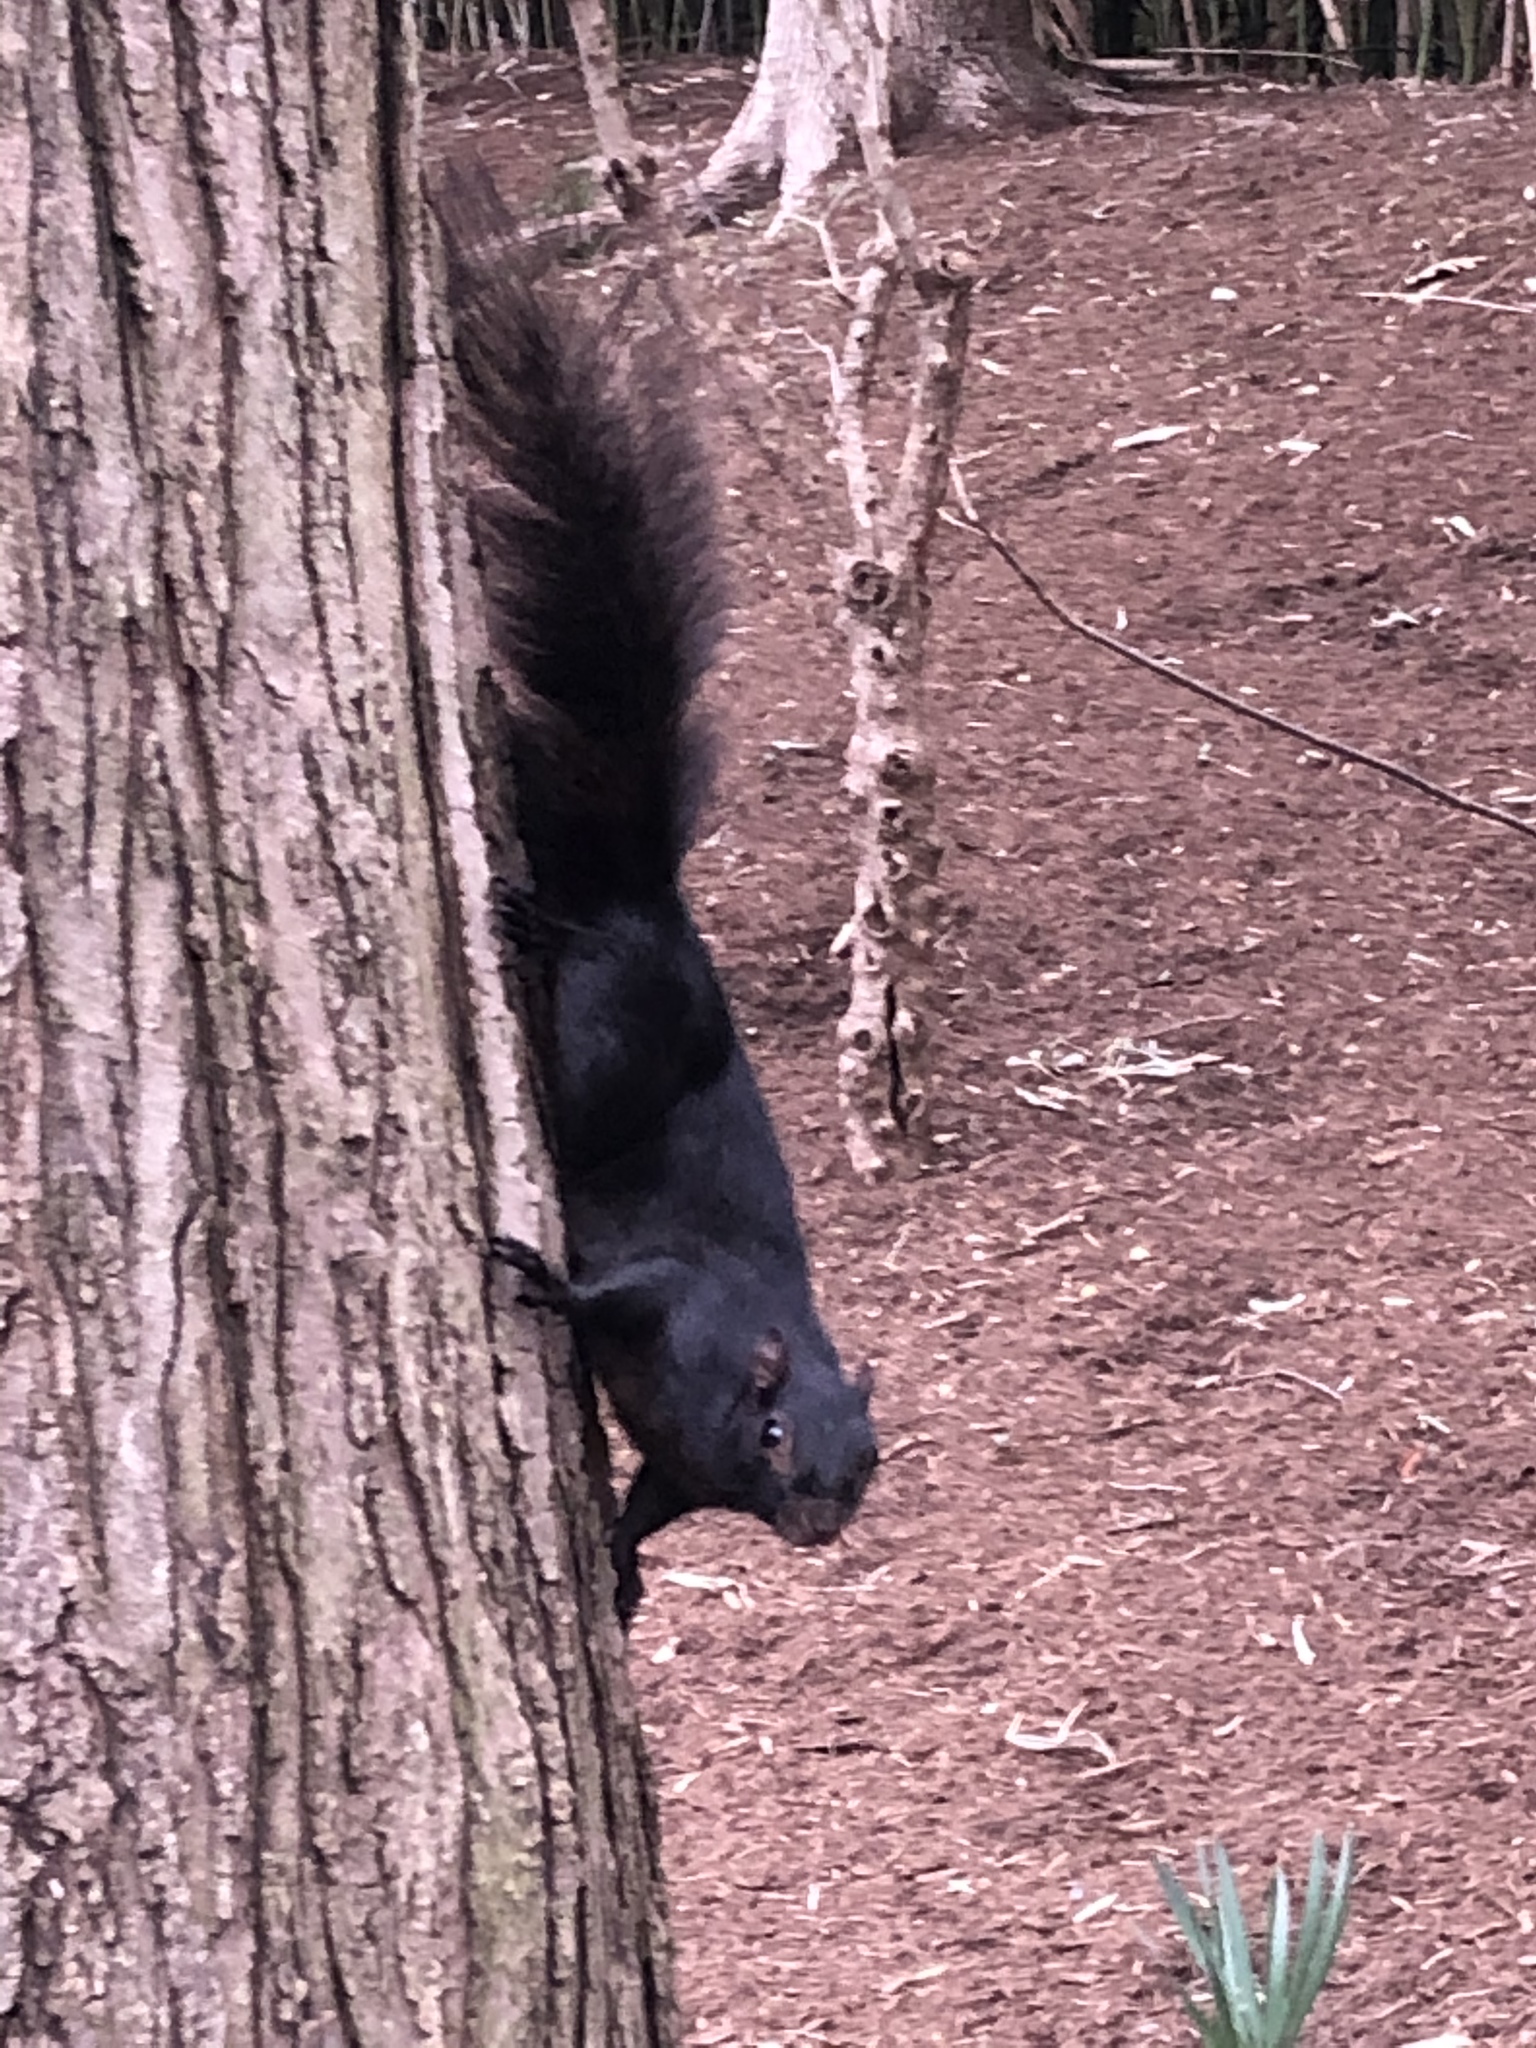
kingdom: Animalia
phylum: Chordata
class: Mammalia
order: Rodentia
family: Sciuridae
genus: Sciurus
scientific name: Sciurus carolinensis
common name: Eastern gray squirrel
